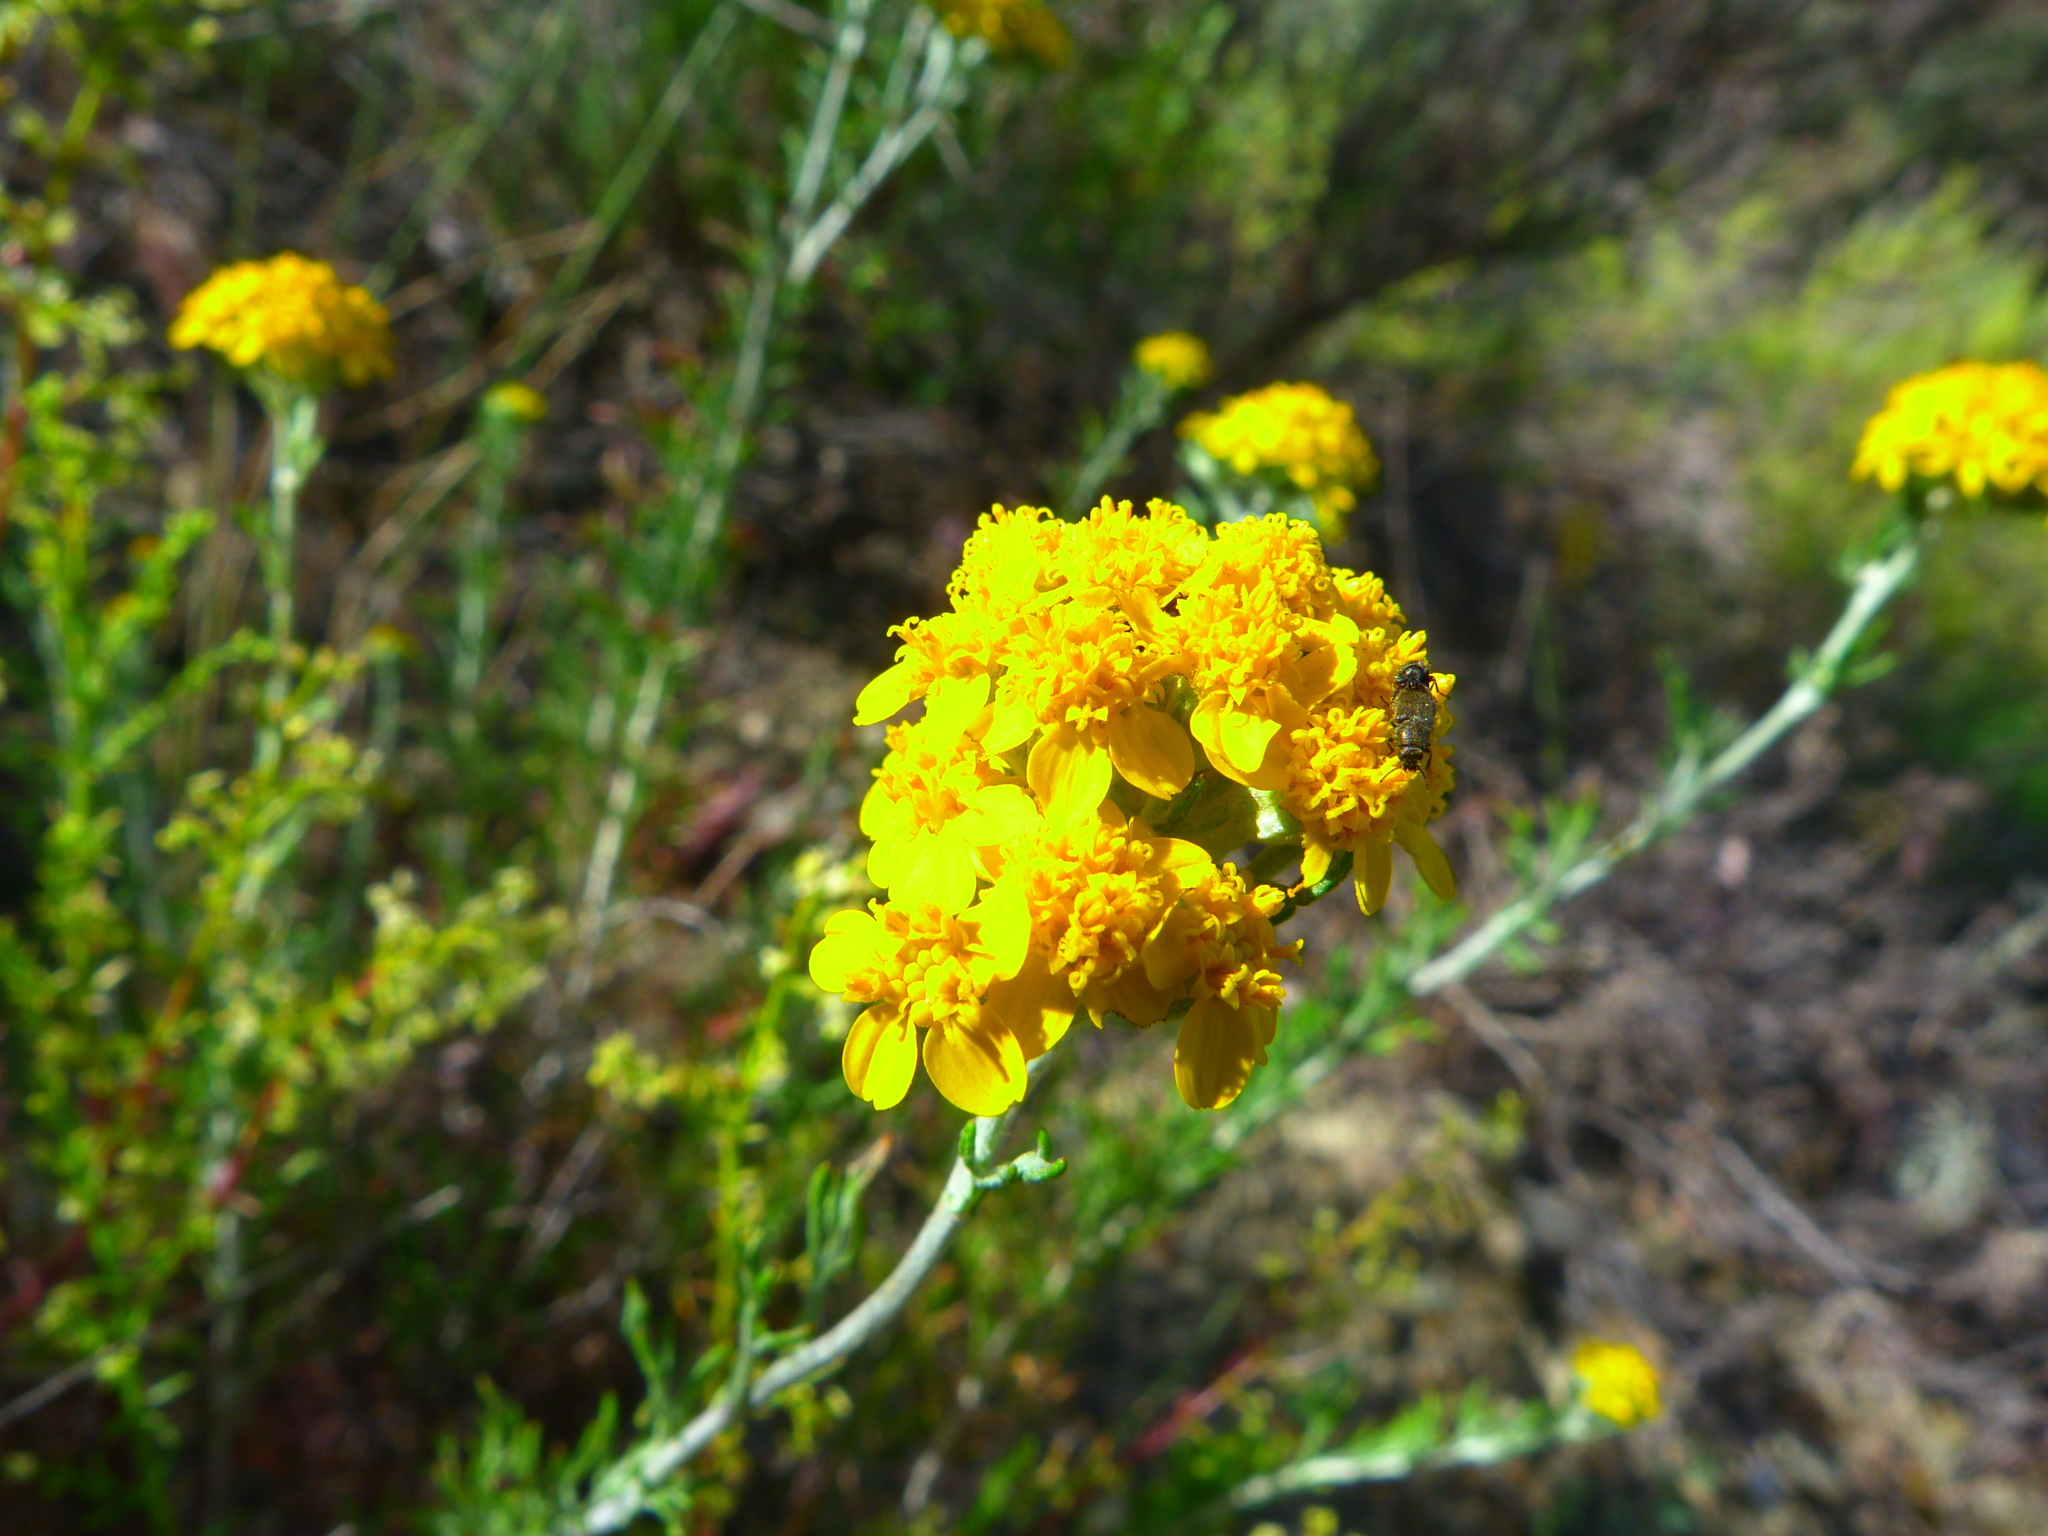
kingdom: Plantae
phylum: Tracheophyta
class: Magnoliopsida
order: Asterales
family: Asteraceae
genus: Eriophyllum
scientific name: Eriophyllum confertiflorum
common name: Golden-yarrow
